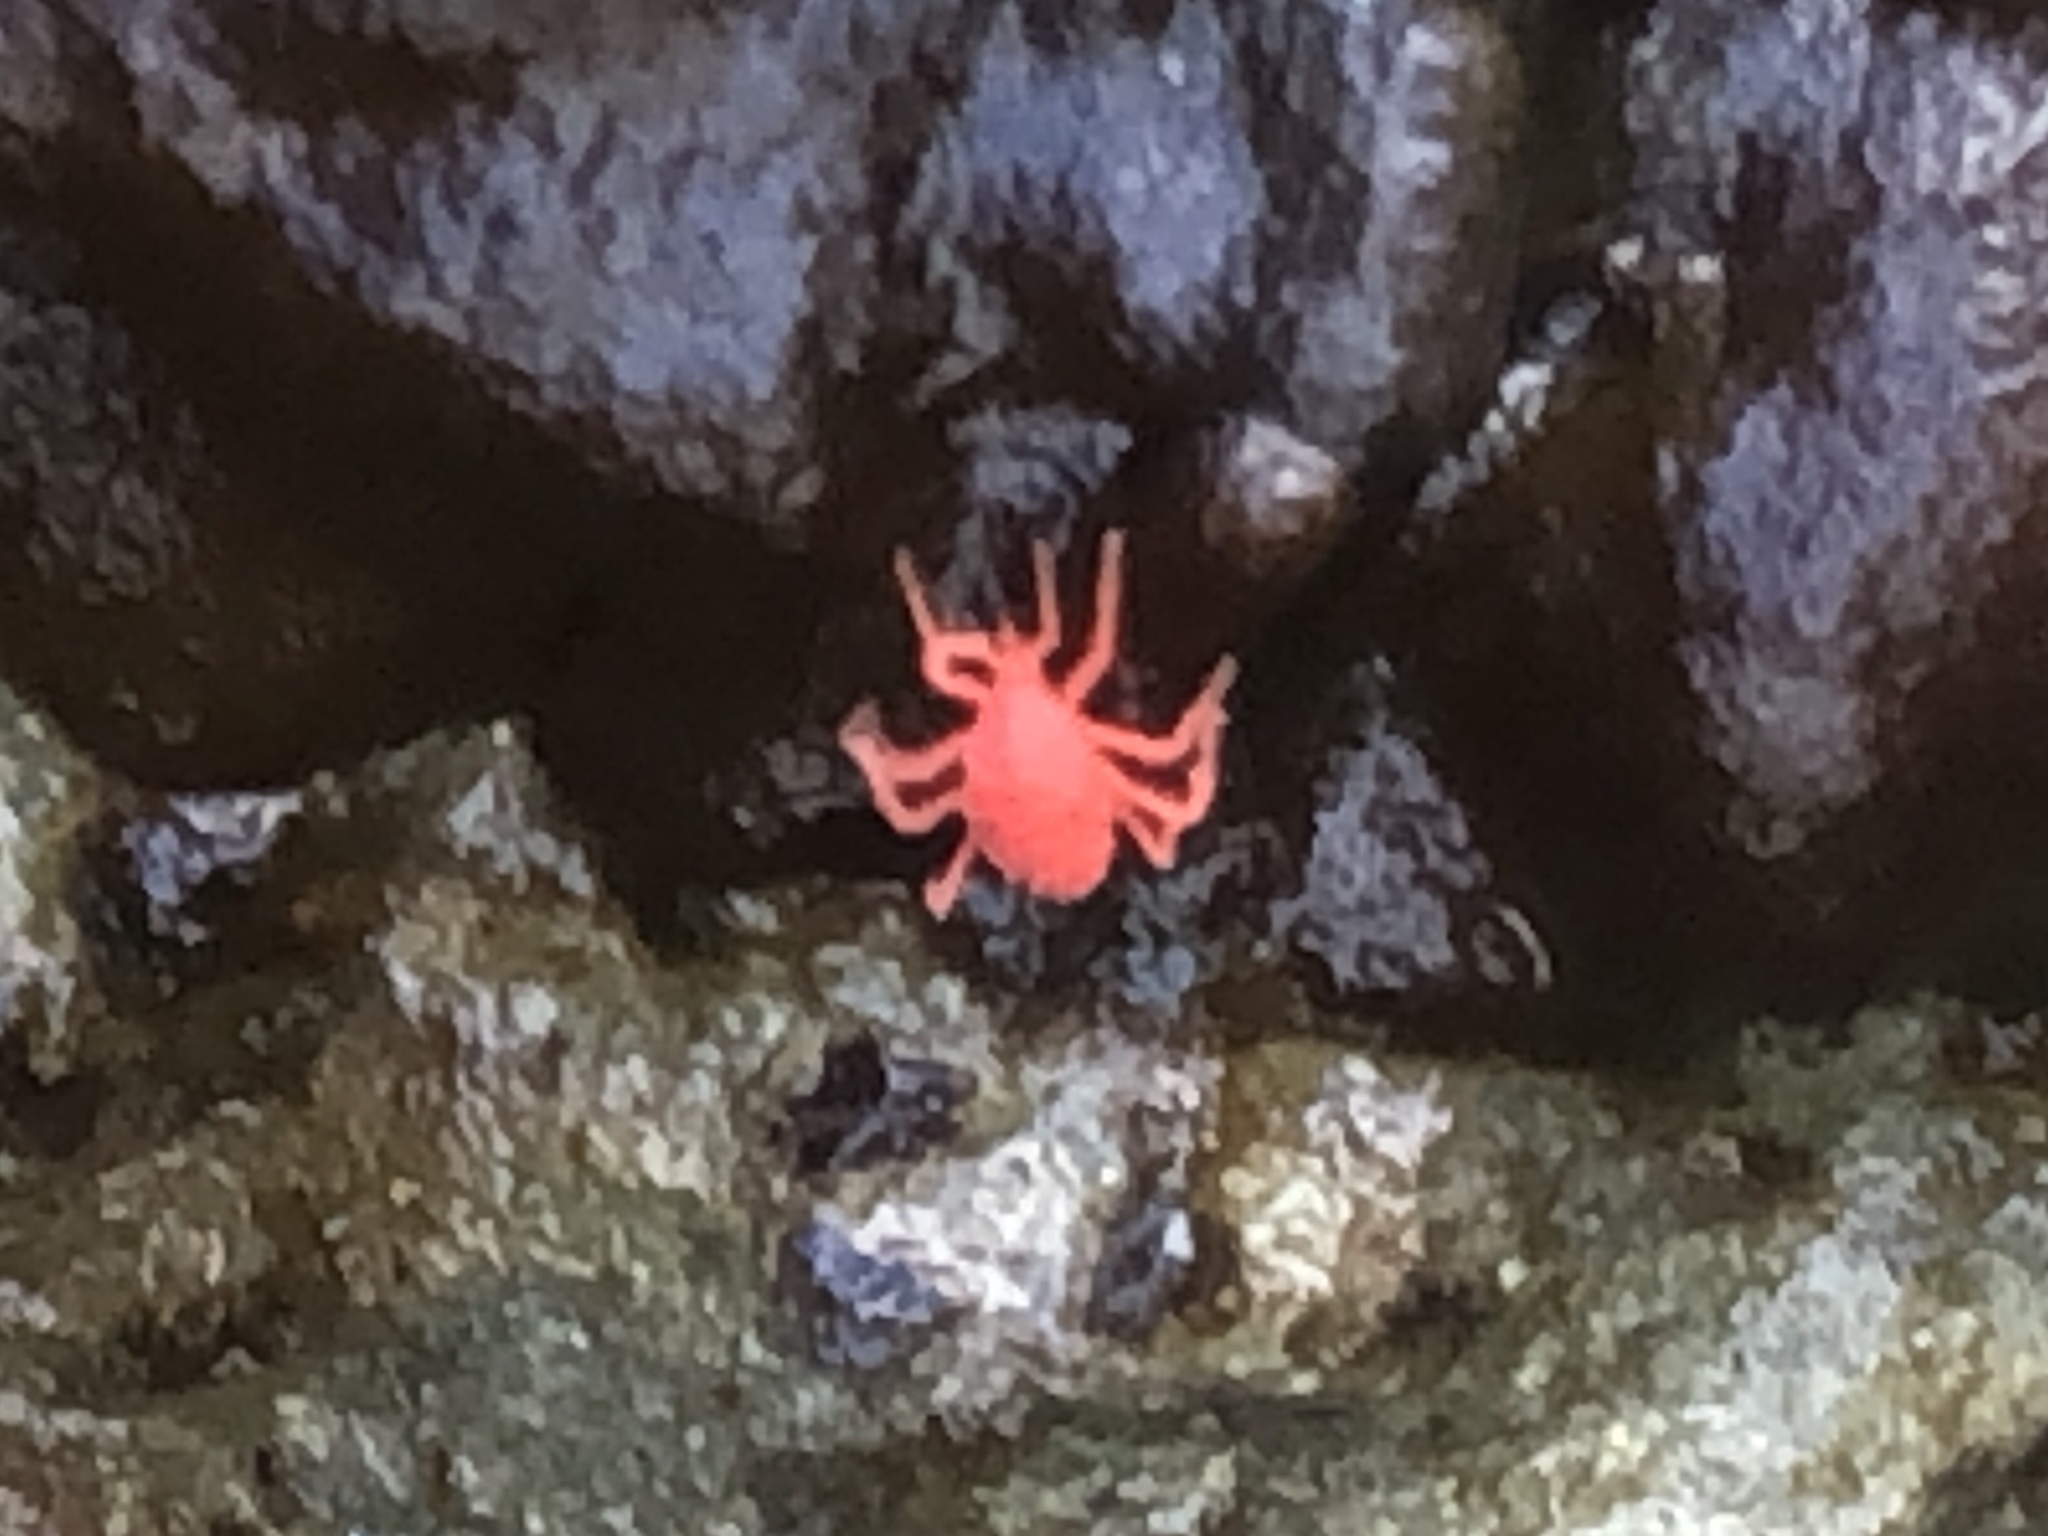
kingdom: Animalia
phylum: Arthropoda
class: Arachnida
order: Trombidiformes
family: Bdellidae
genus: Neomolgus
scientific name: Neomolgus littoralis
